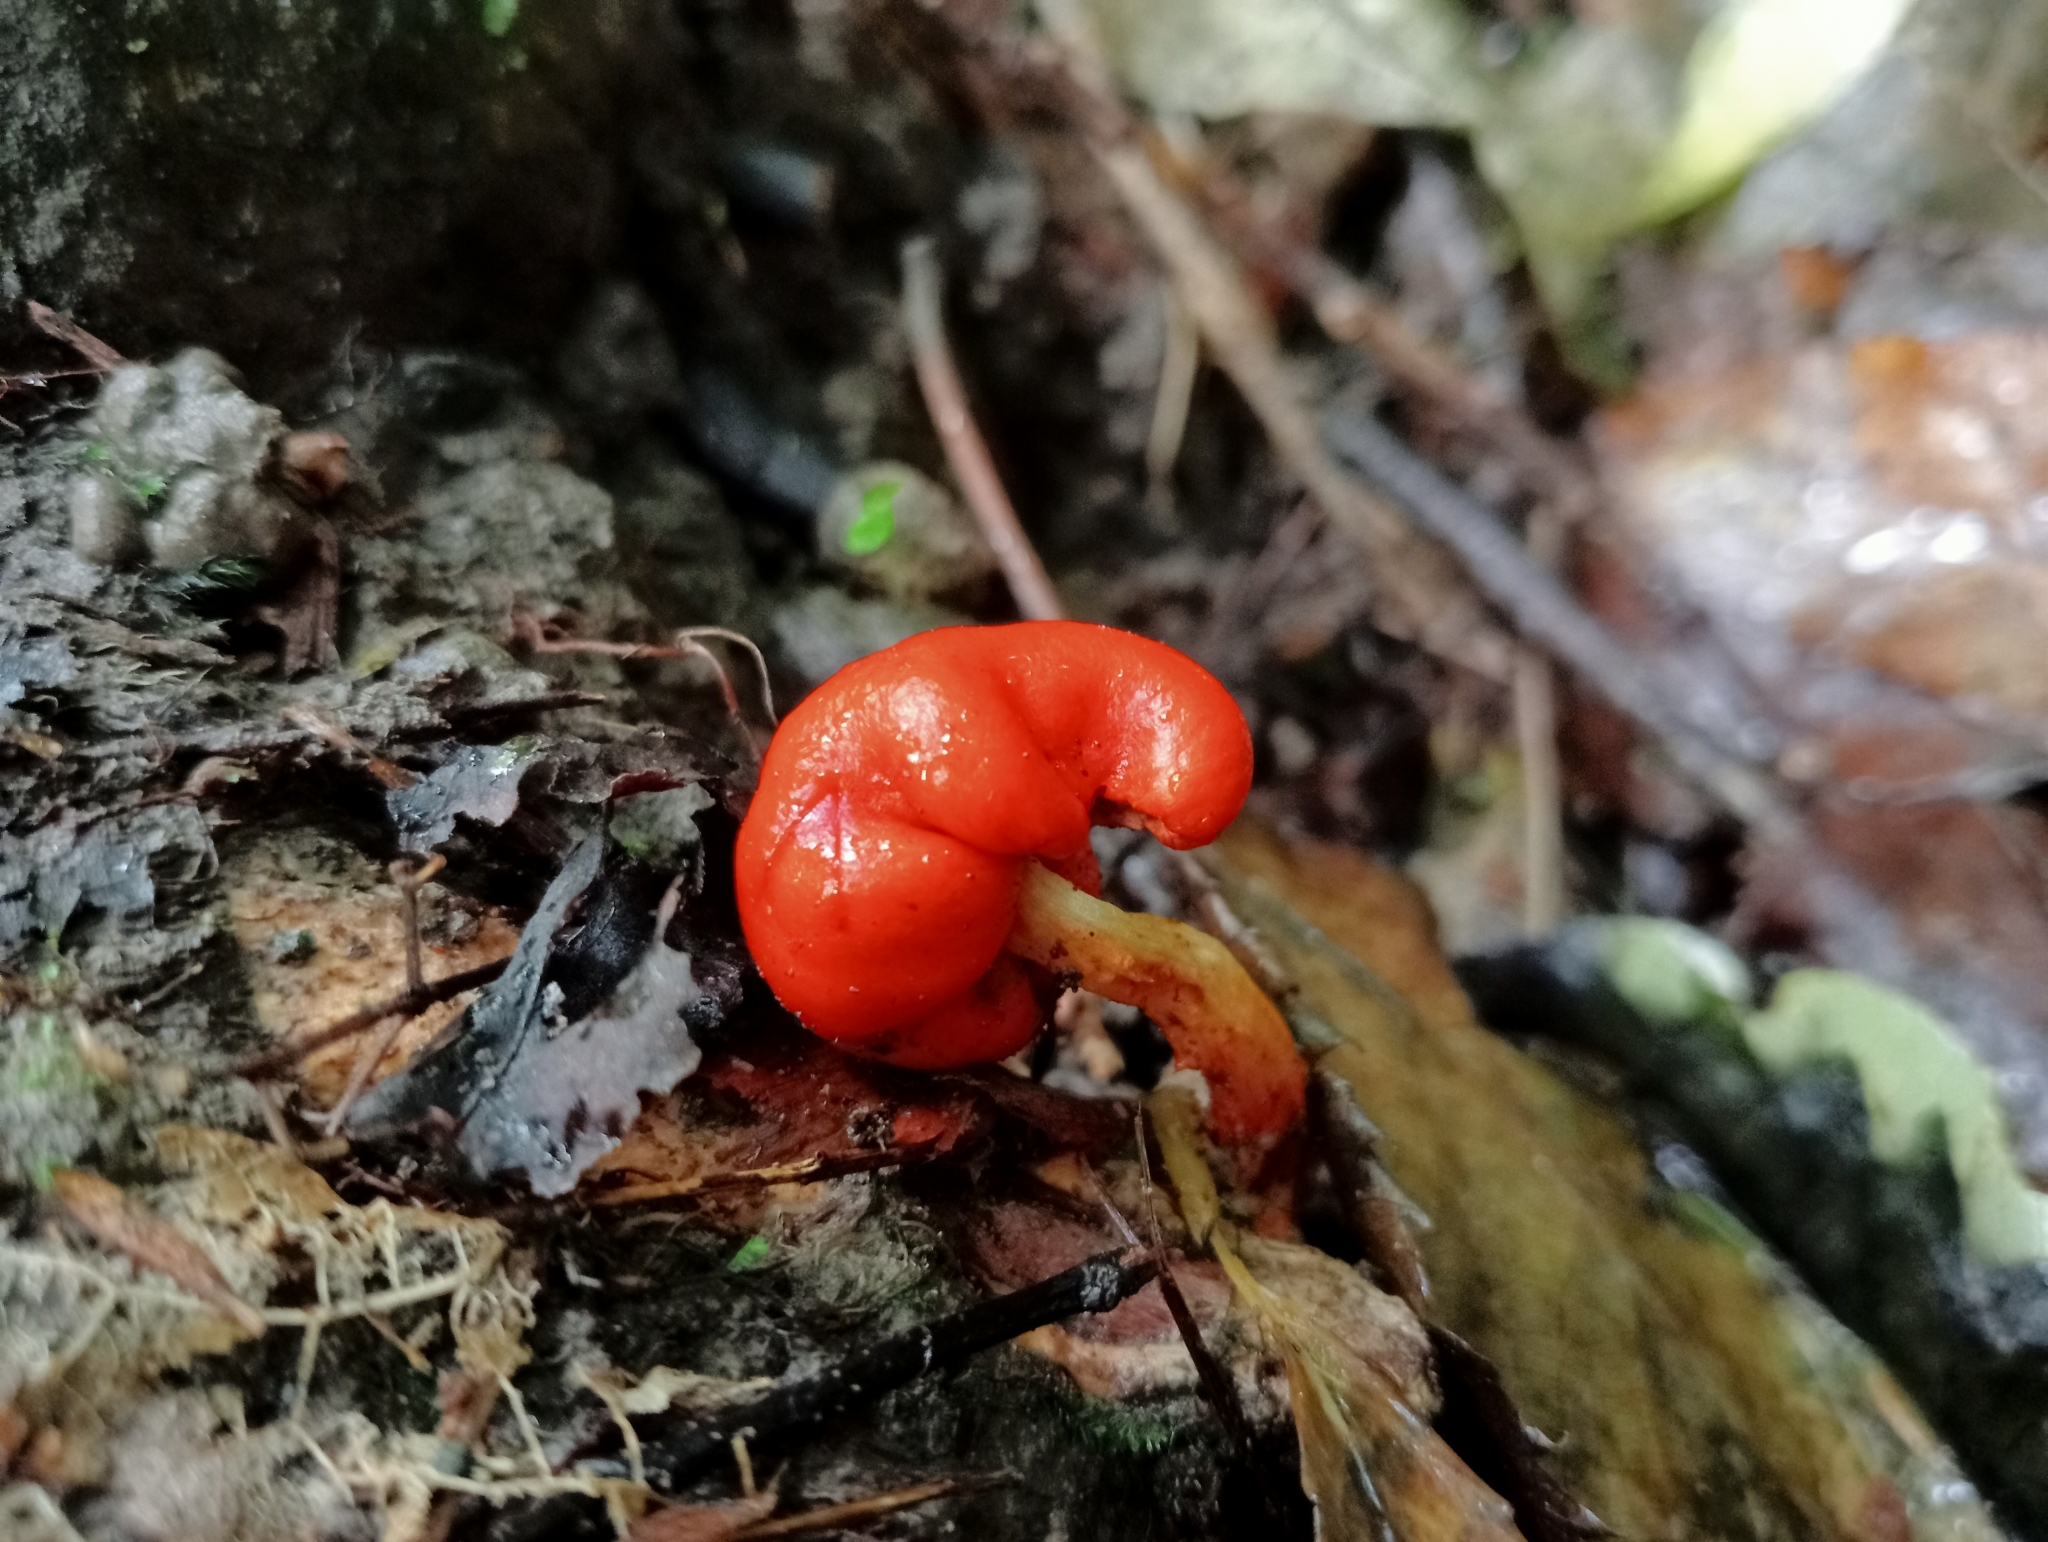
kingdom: Fungi
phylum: Basidiomycota
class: Agaricomycetes
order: Agaricales
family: Strophariaceae
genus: Leratiomyces
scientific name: Leratiomyces erythrocephalus
